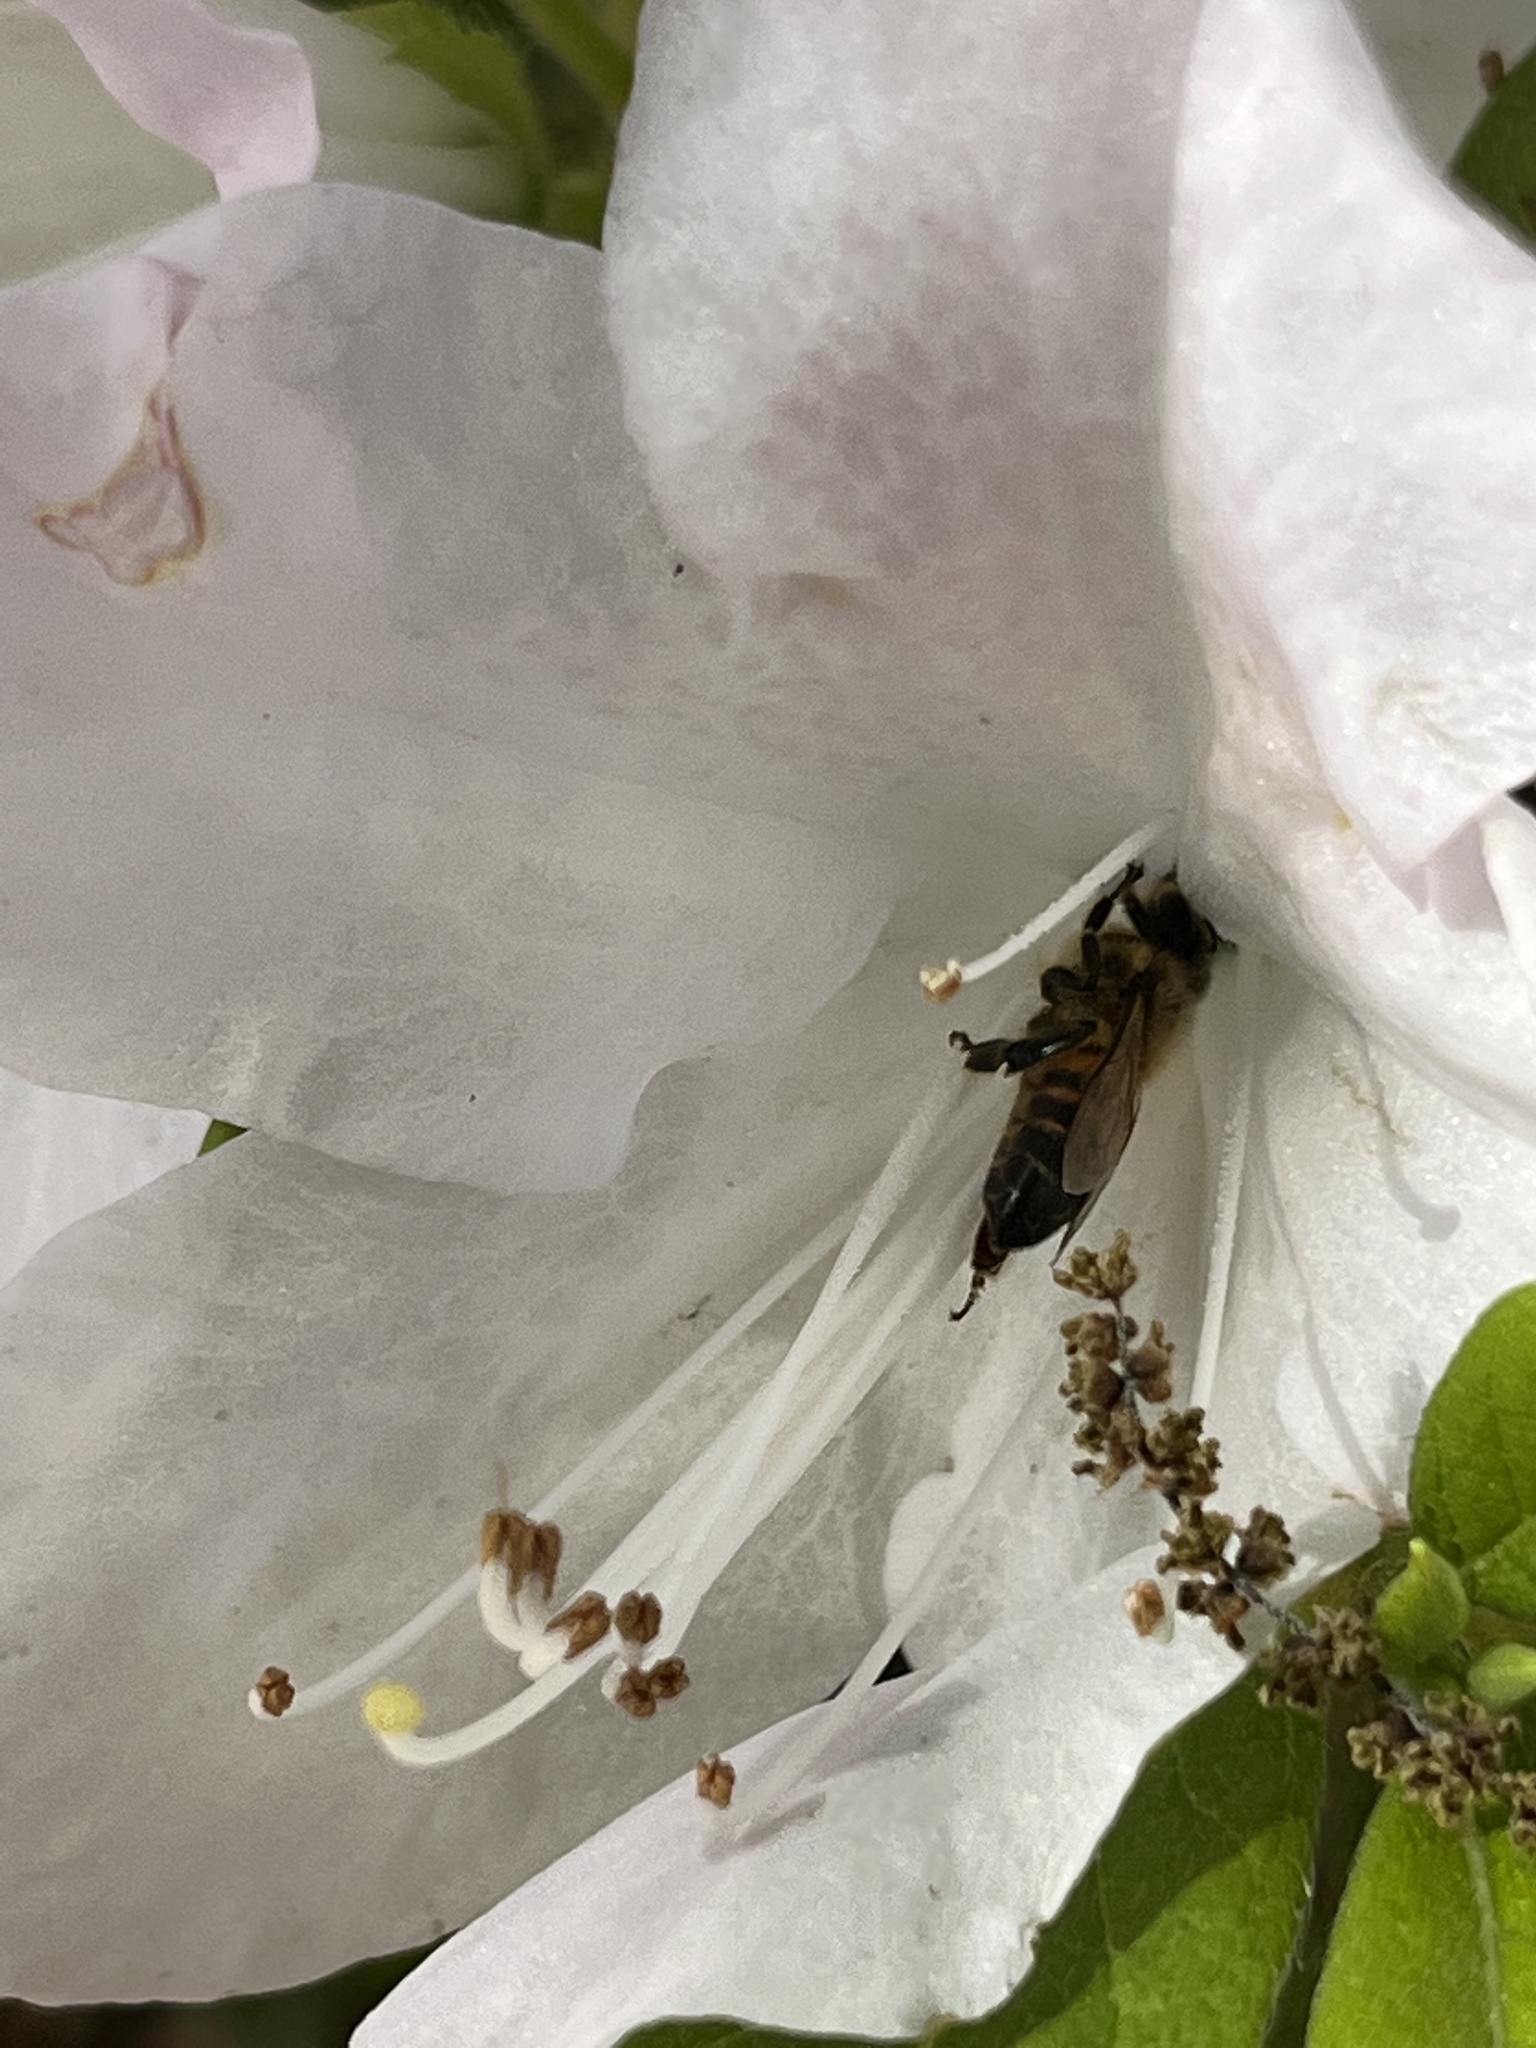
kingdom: Animalia
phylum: Arthropoda
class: Insecta
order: Hymenoptera
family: Apidae
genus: Apis
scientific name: Apis mellifera
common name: Honey bee
